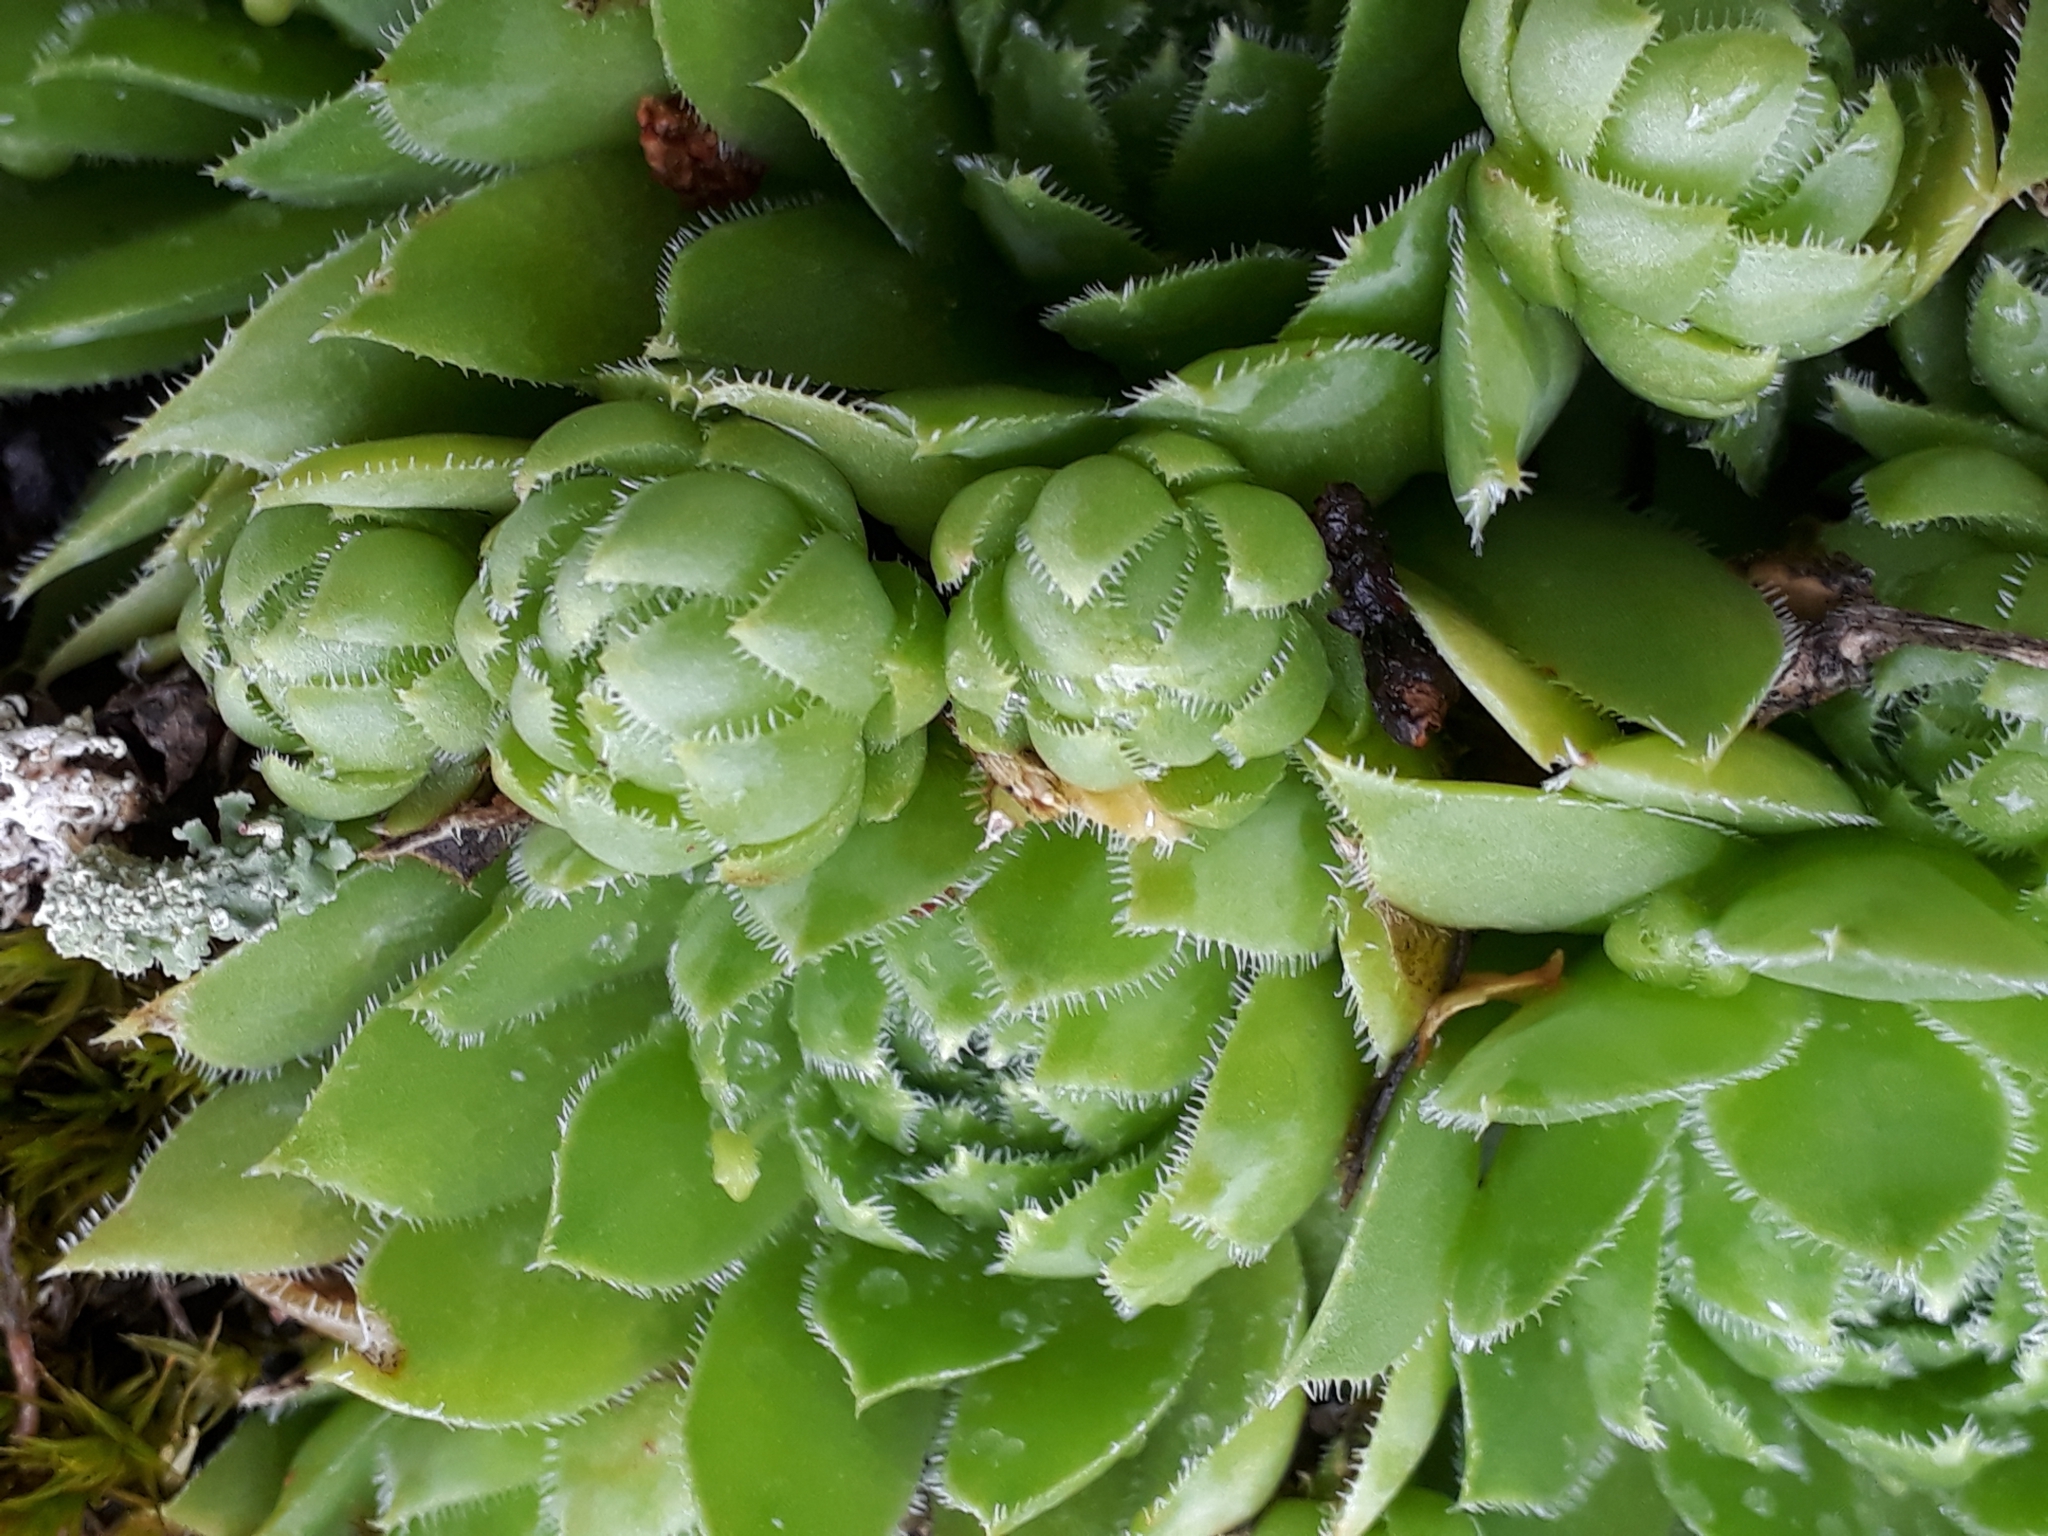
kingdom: Plantae
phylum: Tracheophyta
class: Magnoliopsida
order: Saxifragales
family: Crassulaceae
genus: Sempervivum
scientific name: Sempervivum globiferum
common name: Rolling hen-and-chicks
